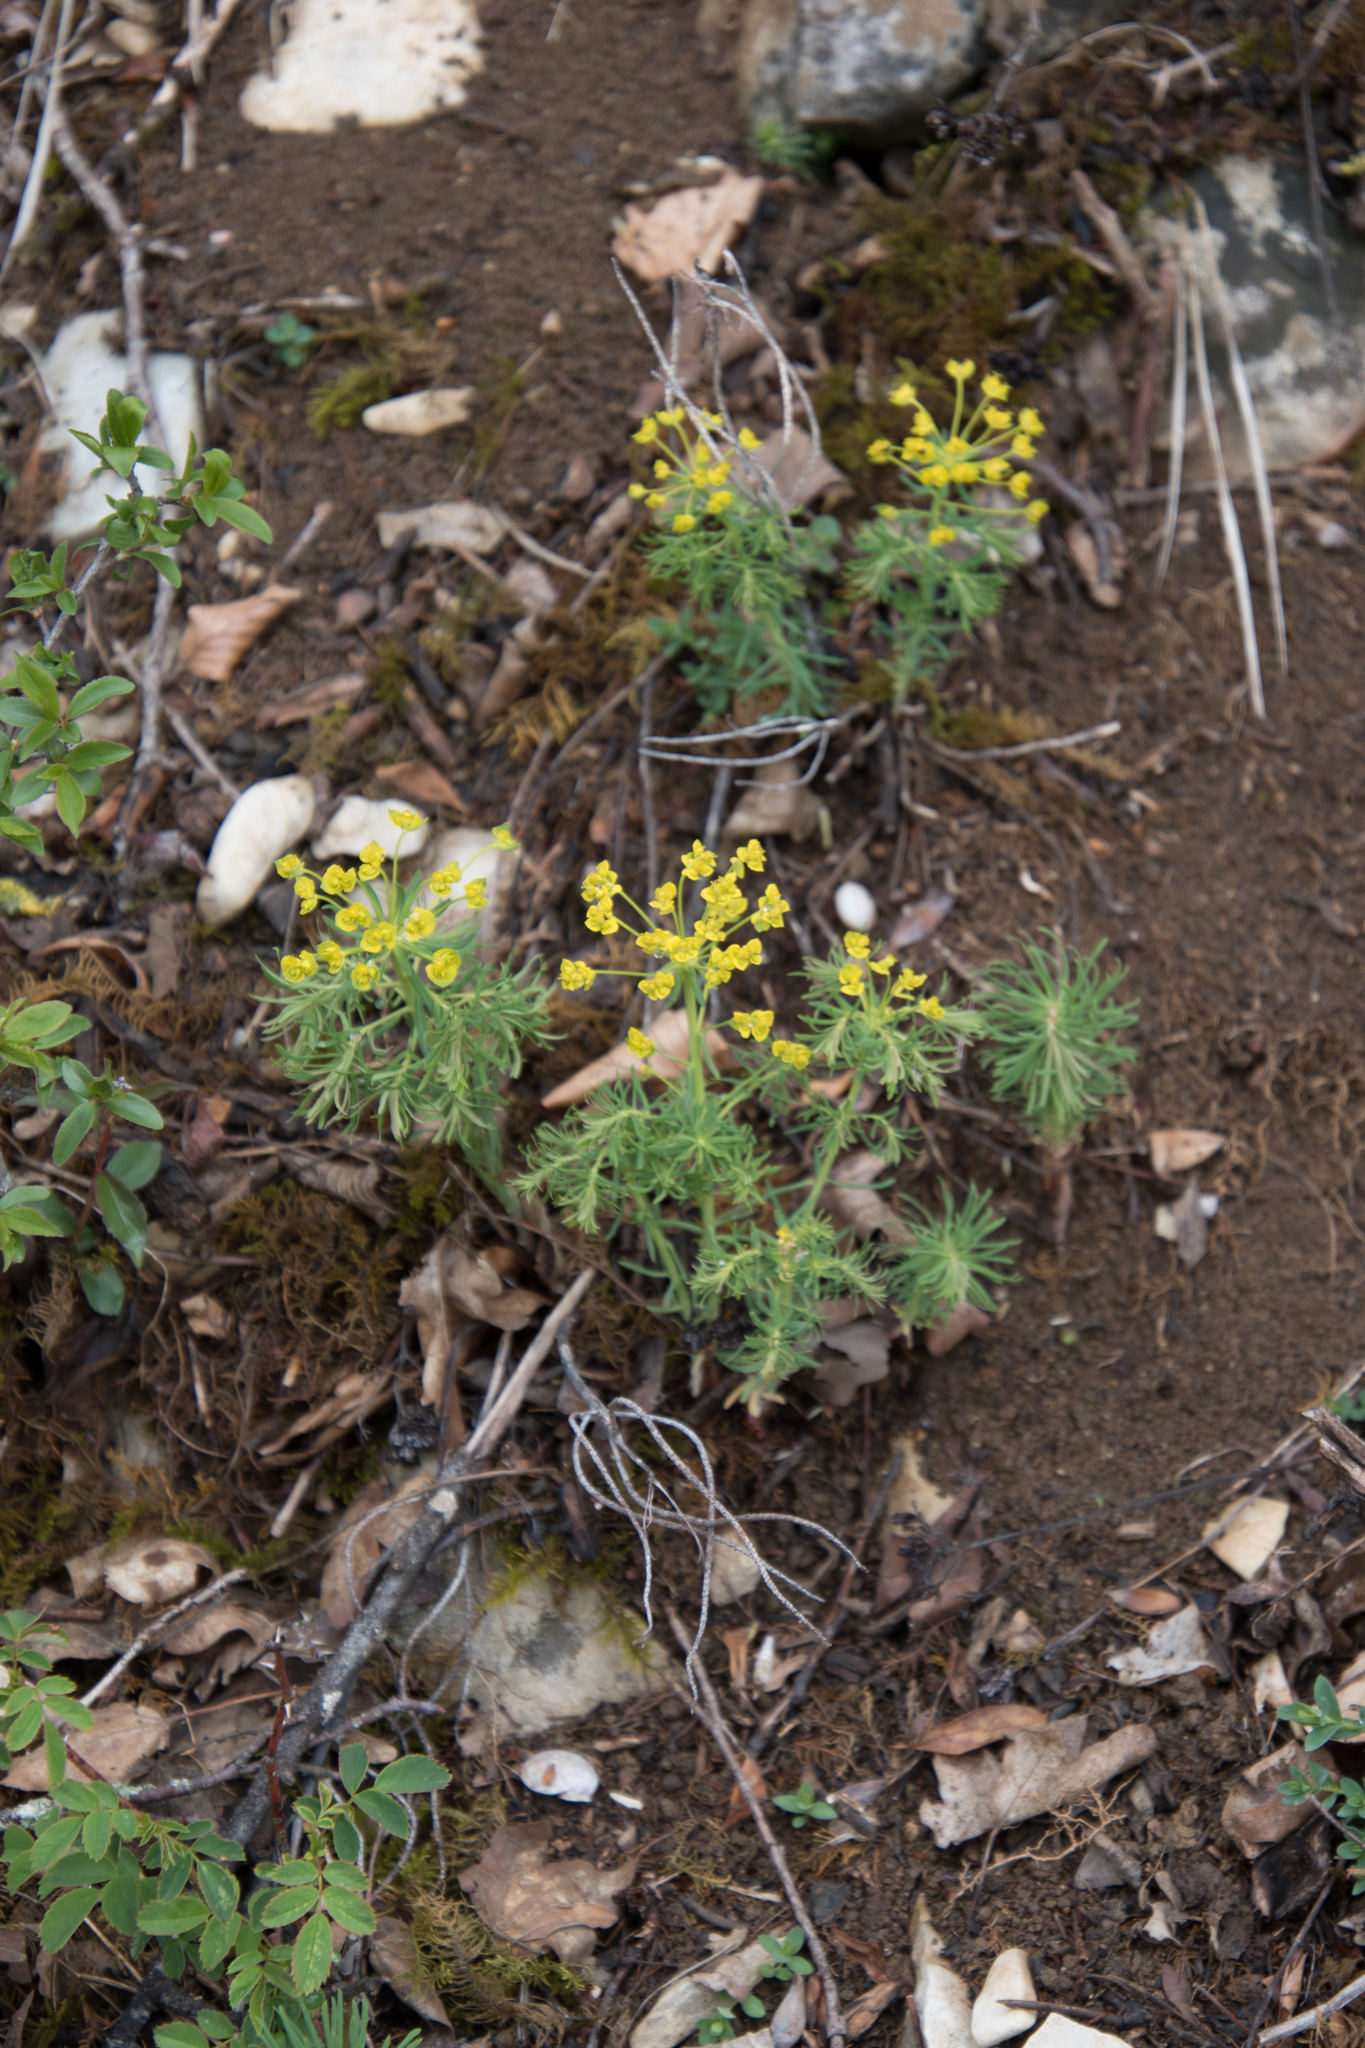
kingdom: Plantae
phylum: Tracheophyta
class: Magnoliopsida
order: Malpighiales
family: Euphorbiaceae
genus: Euphorbia
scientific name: Euphorbia cyparissias
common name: Cypress spurge
